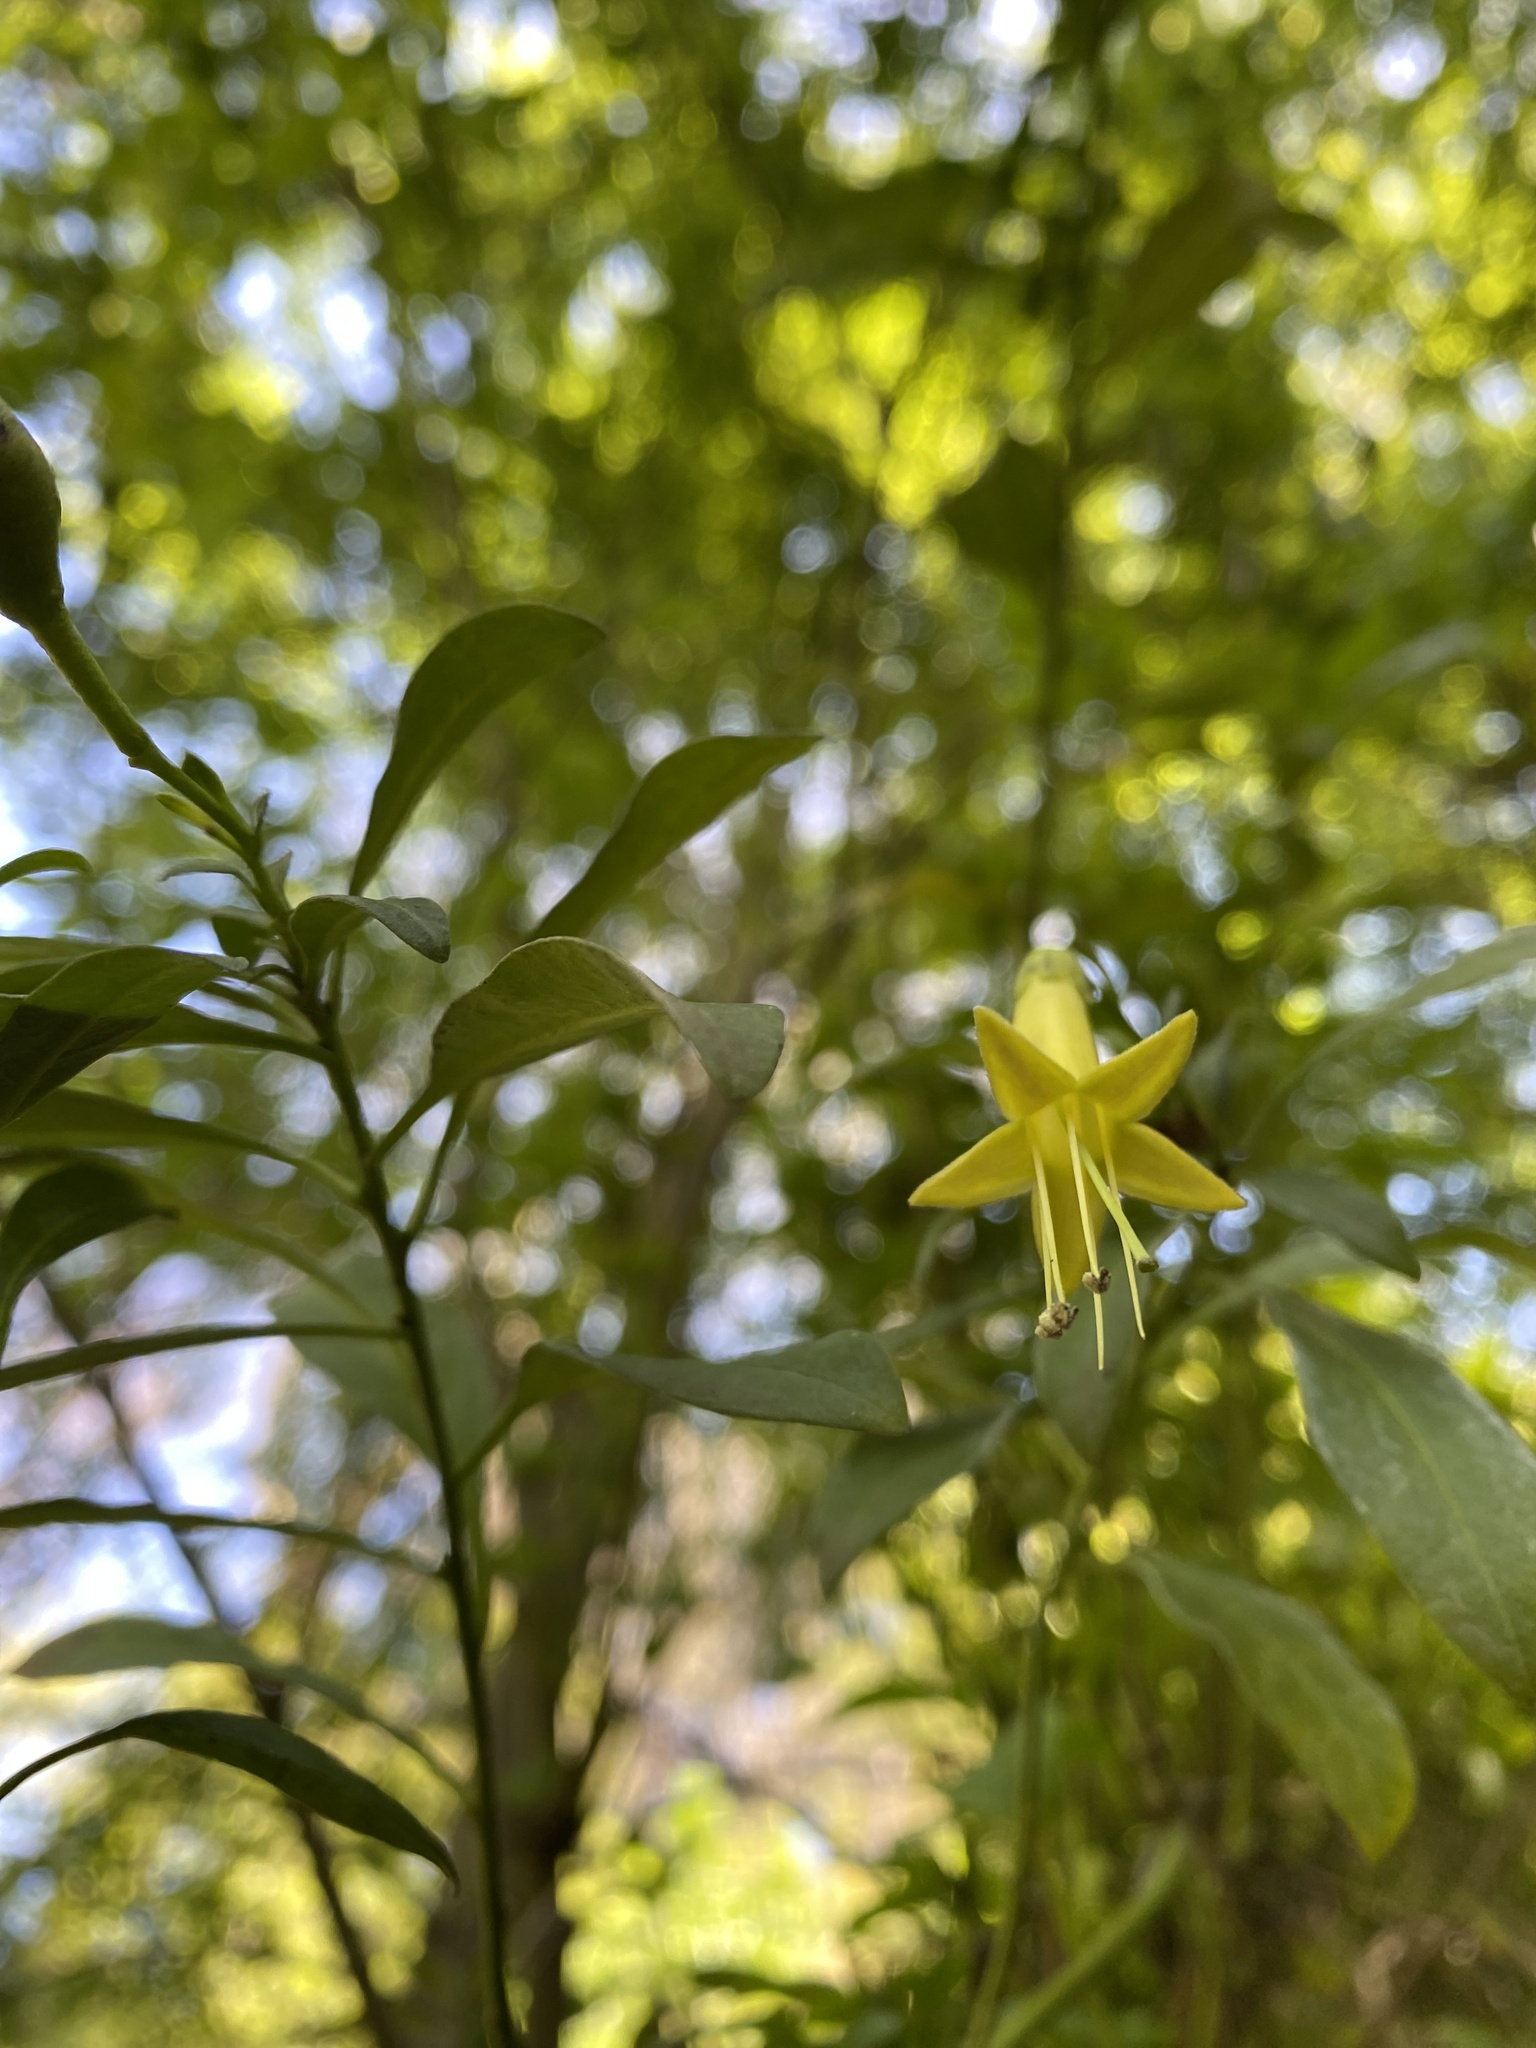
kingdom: Plantae
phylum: Tracheophyta
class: Magnoliopsida
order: Solanales
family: Solanaceae
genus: Vestia
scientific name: Vestia foetida
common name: Huevil
